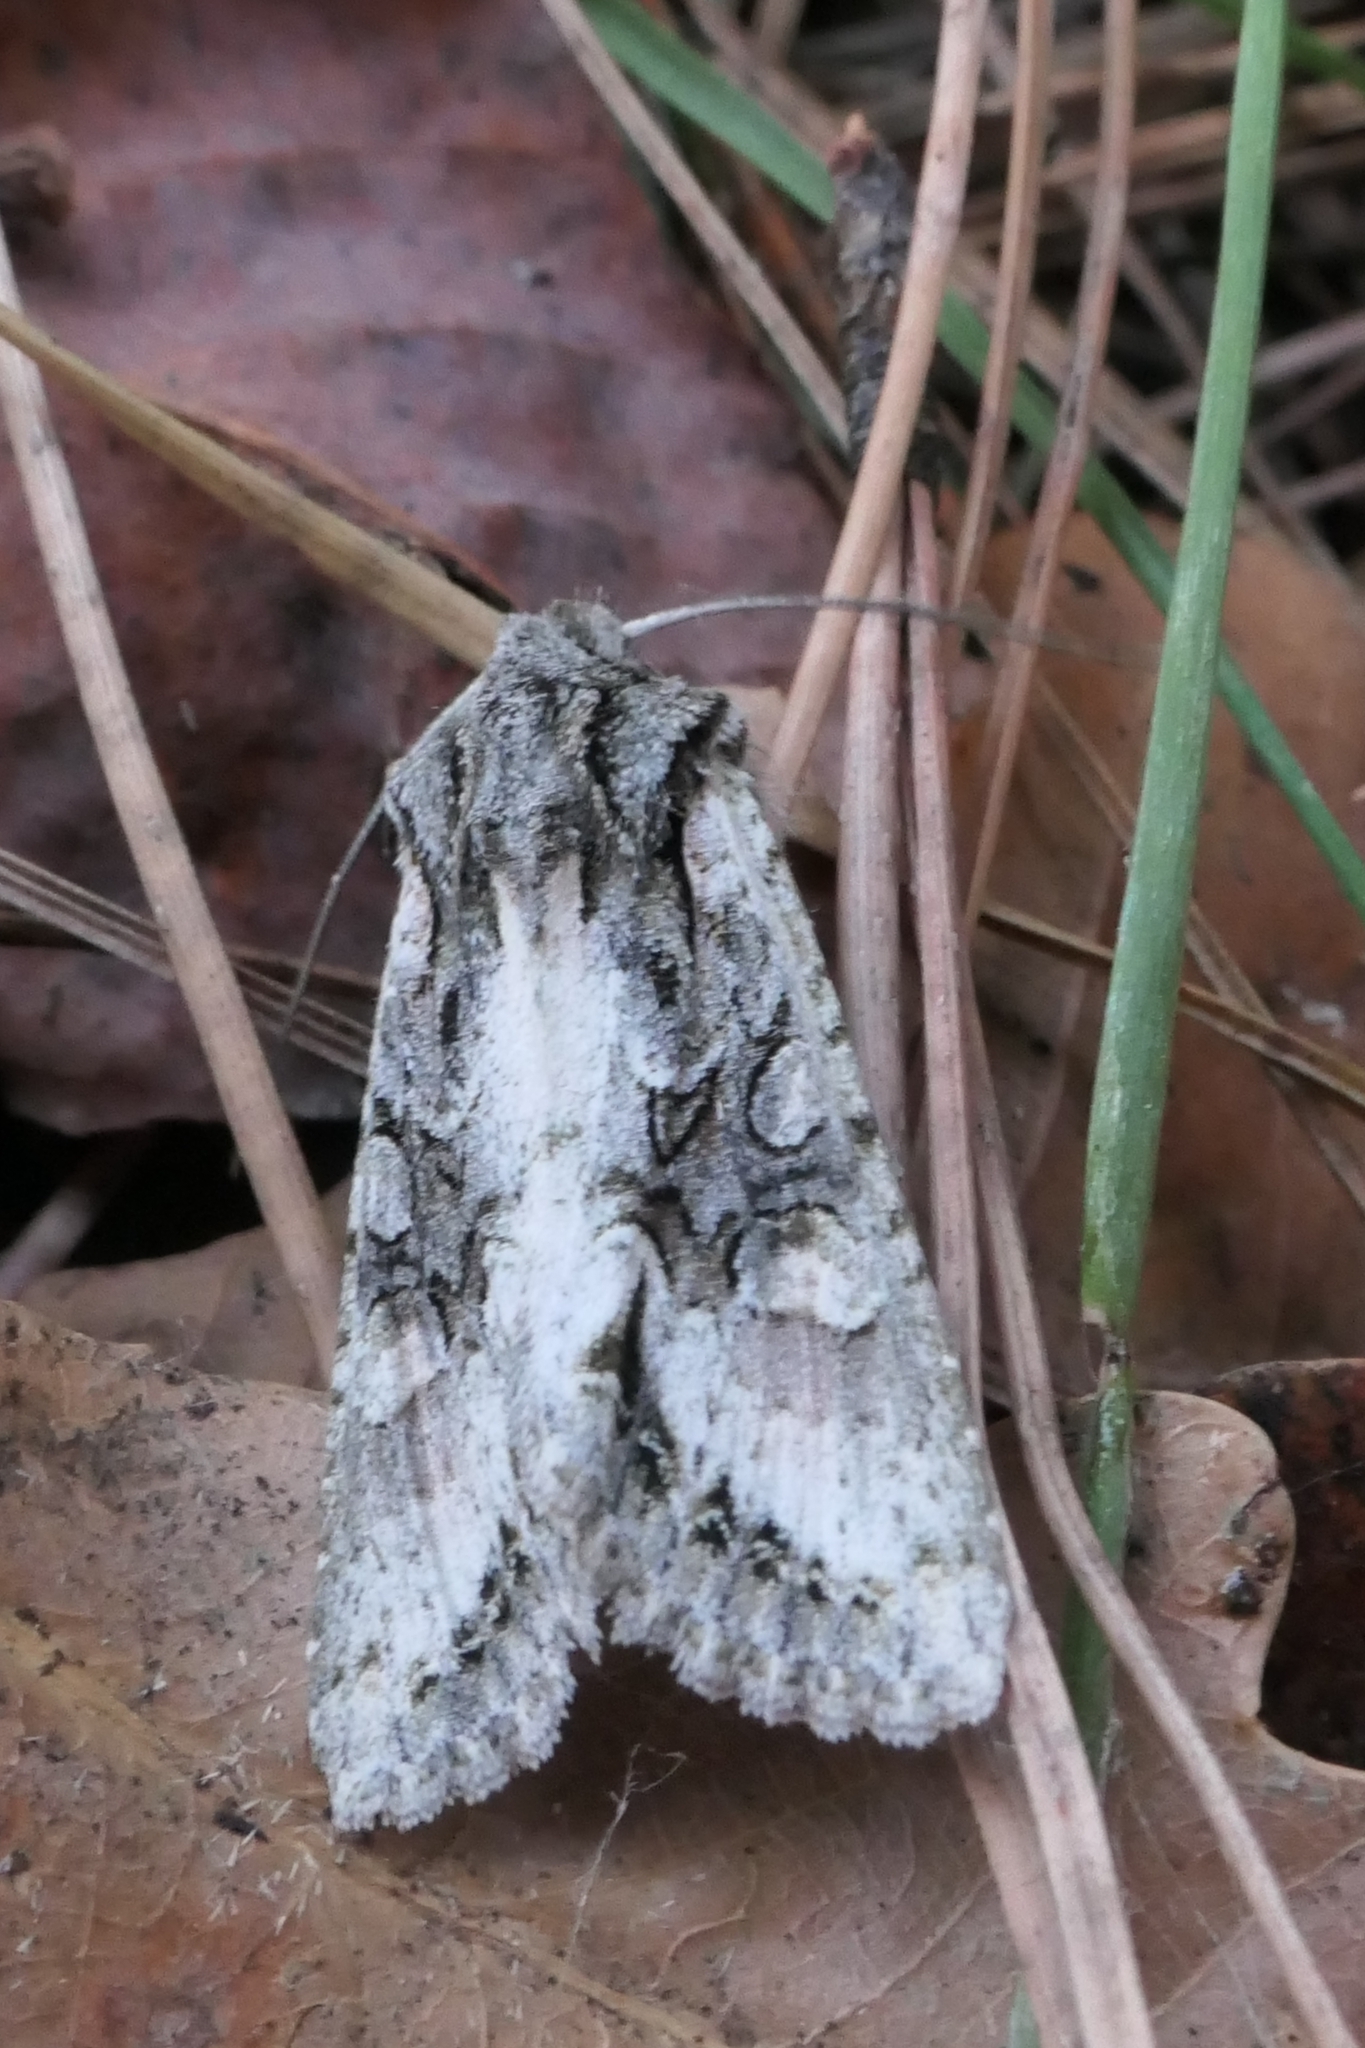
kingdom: Animalia
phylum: Arthropoda
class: Insecta
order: Lepidoptera
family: Noctuidae
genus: Ichneutica
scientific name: Ichneutica mutans
